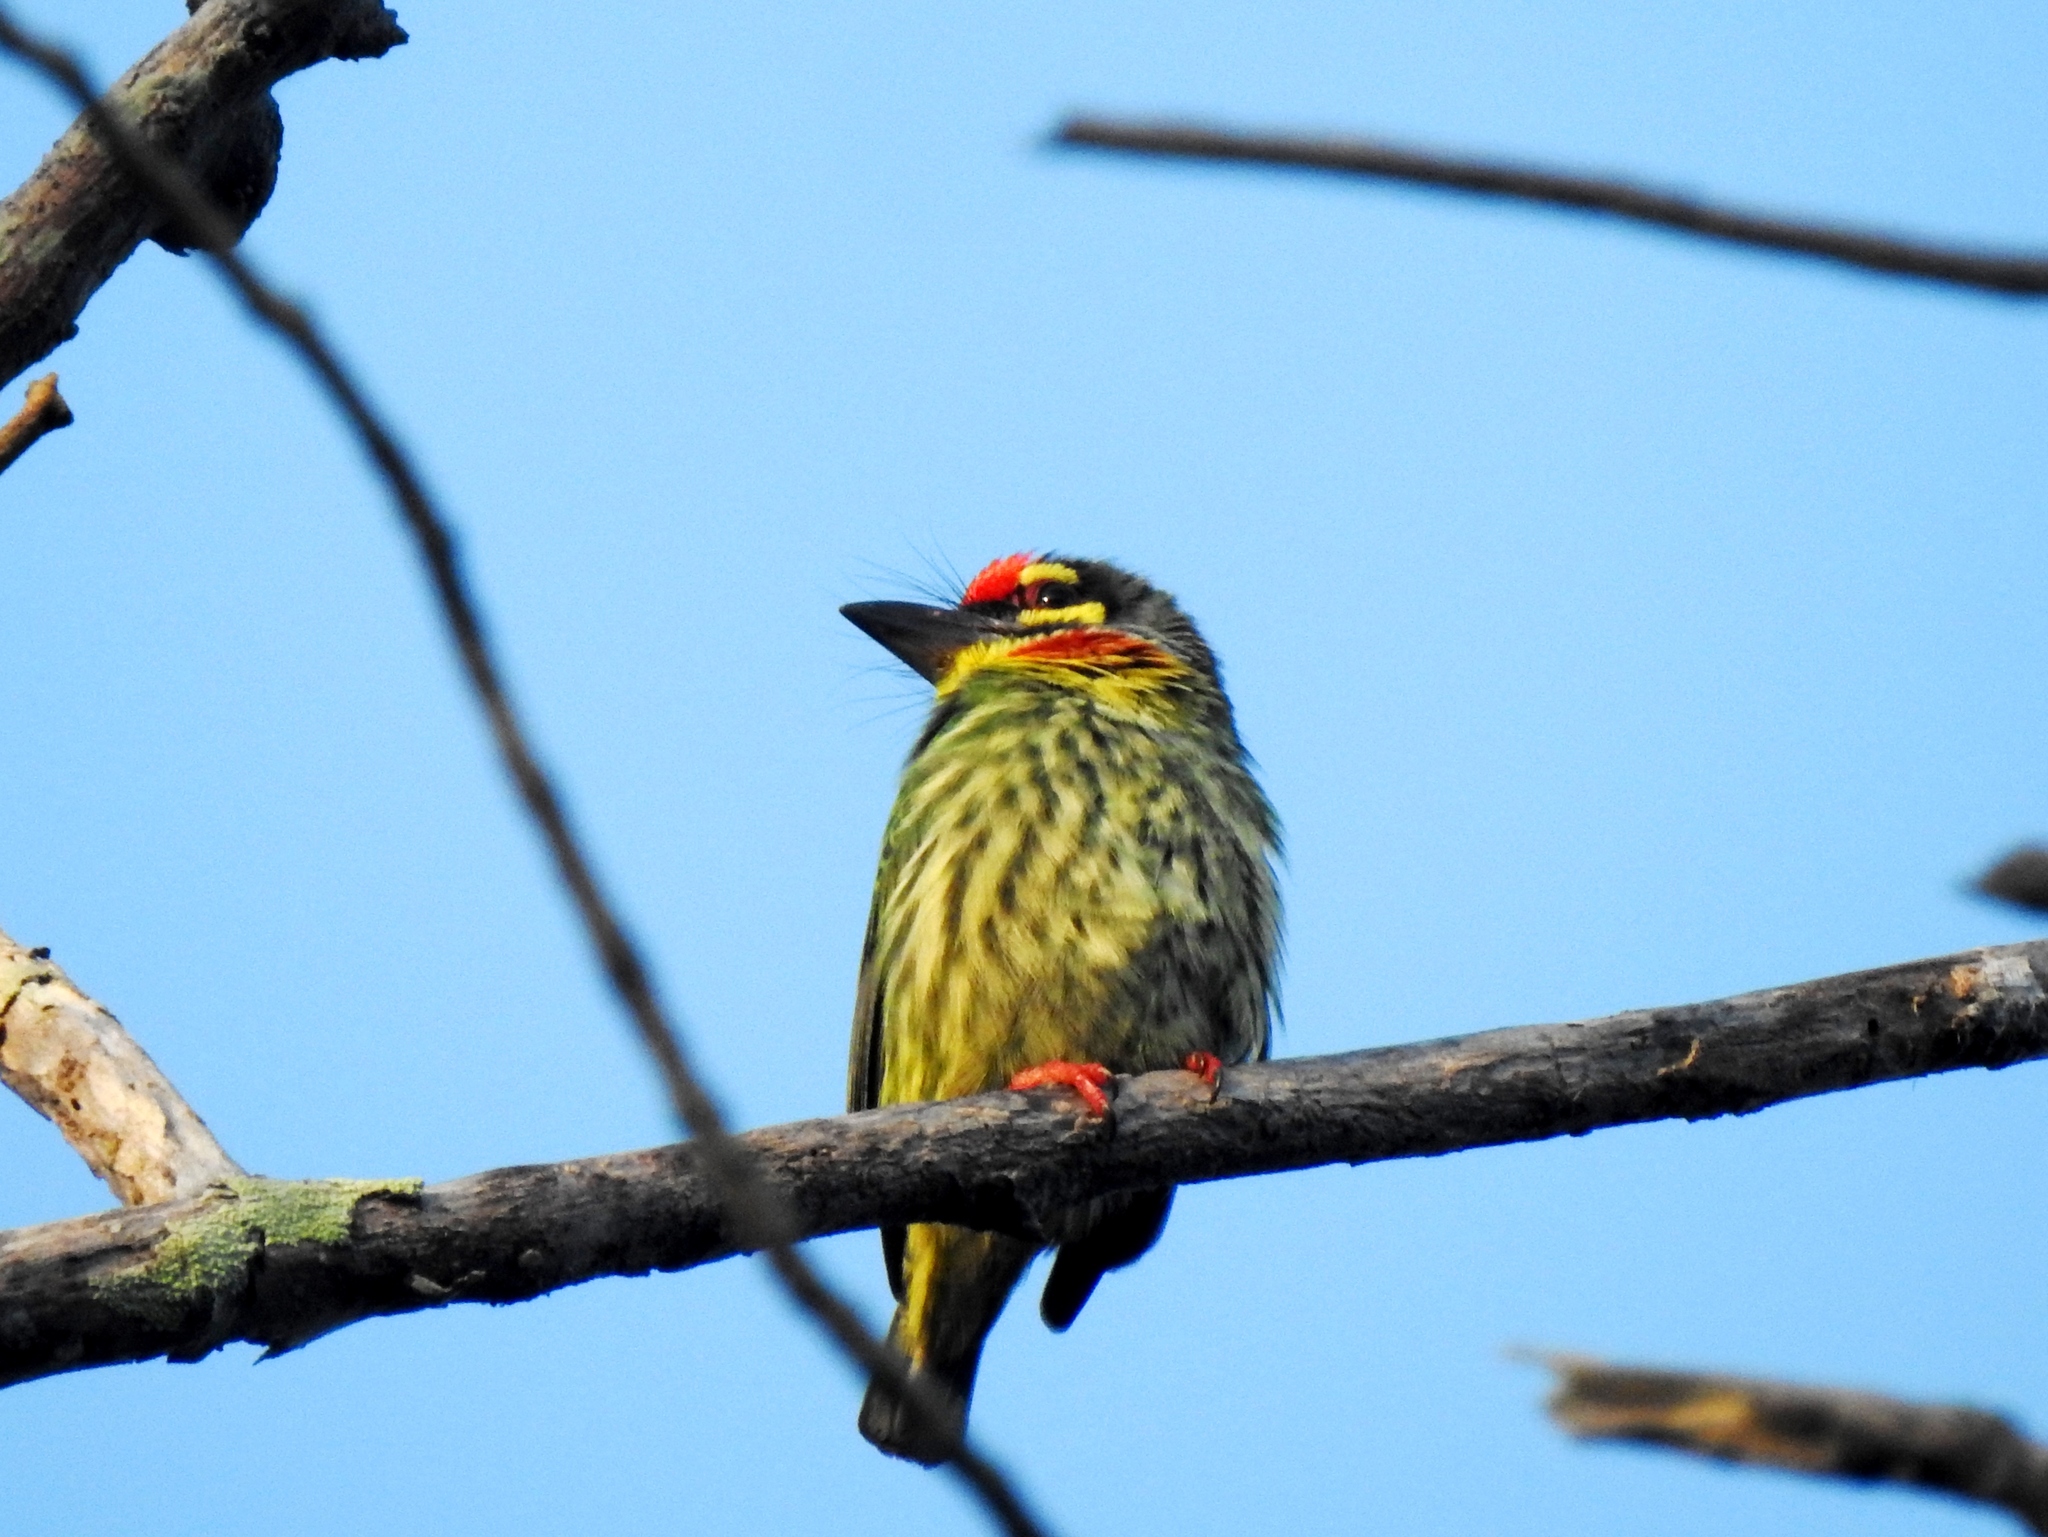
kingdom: Animalia
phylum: Chordata
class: Aves
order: Piciformes
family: Megalaimidae
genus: Psilopogon
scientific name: Psilopogon haemacephalus
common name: Coppersmith barbet
